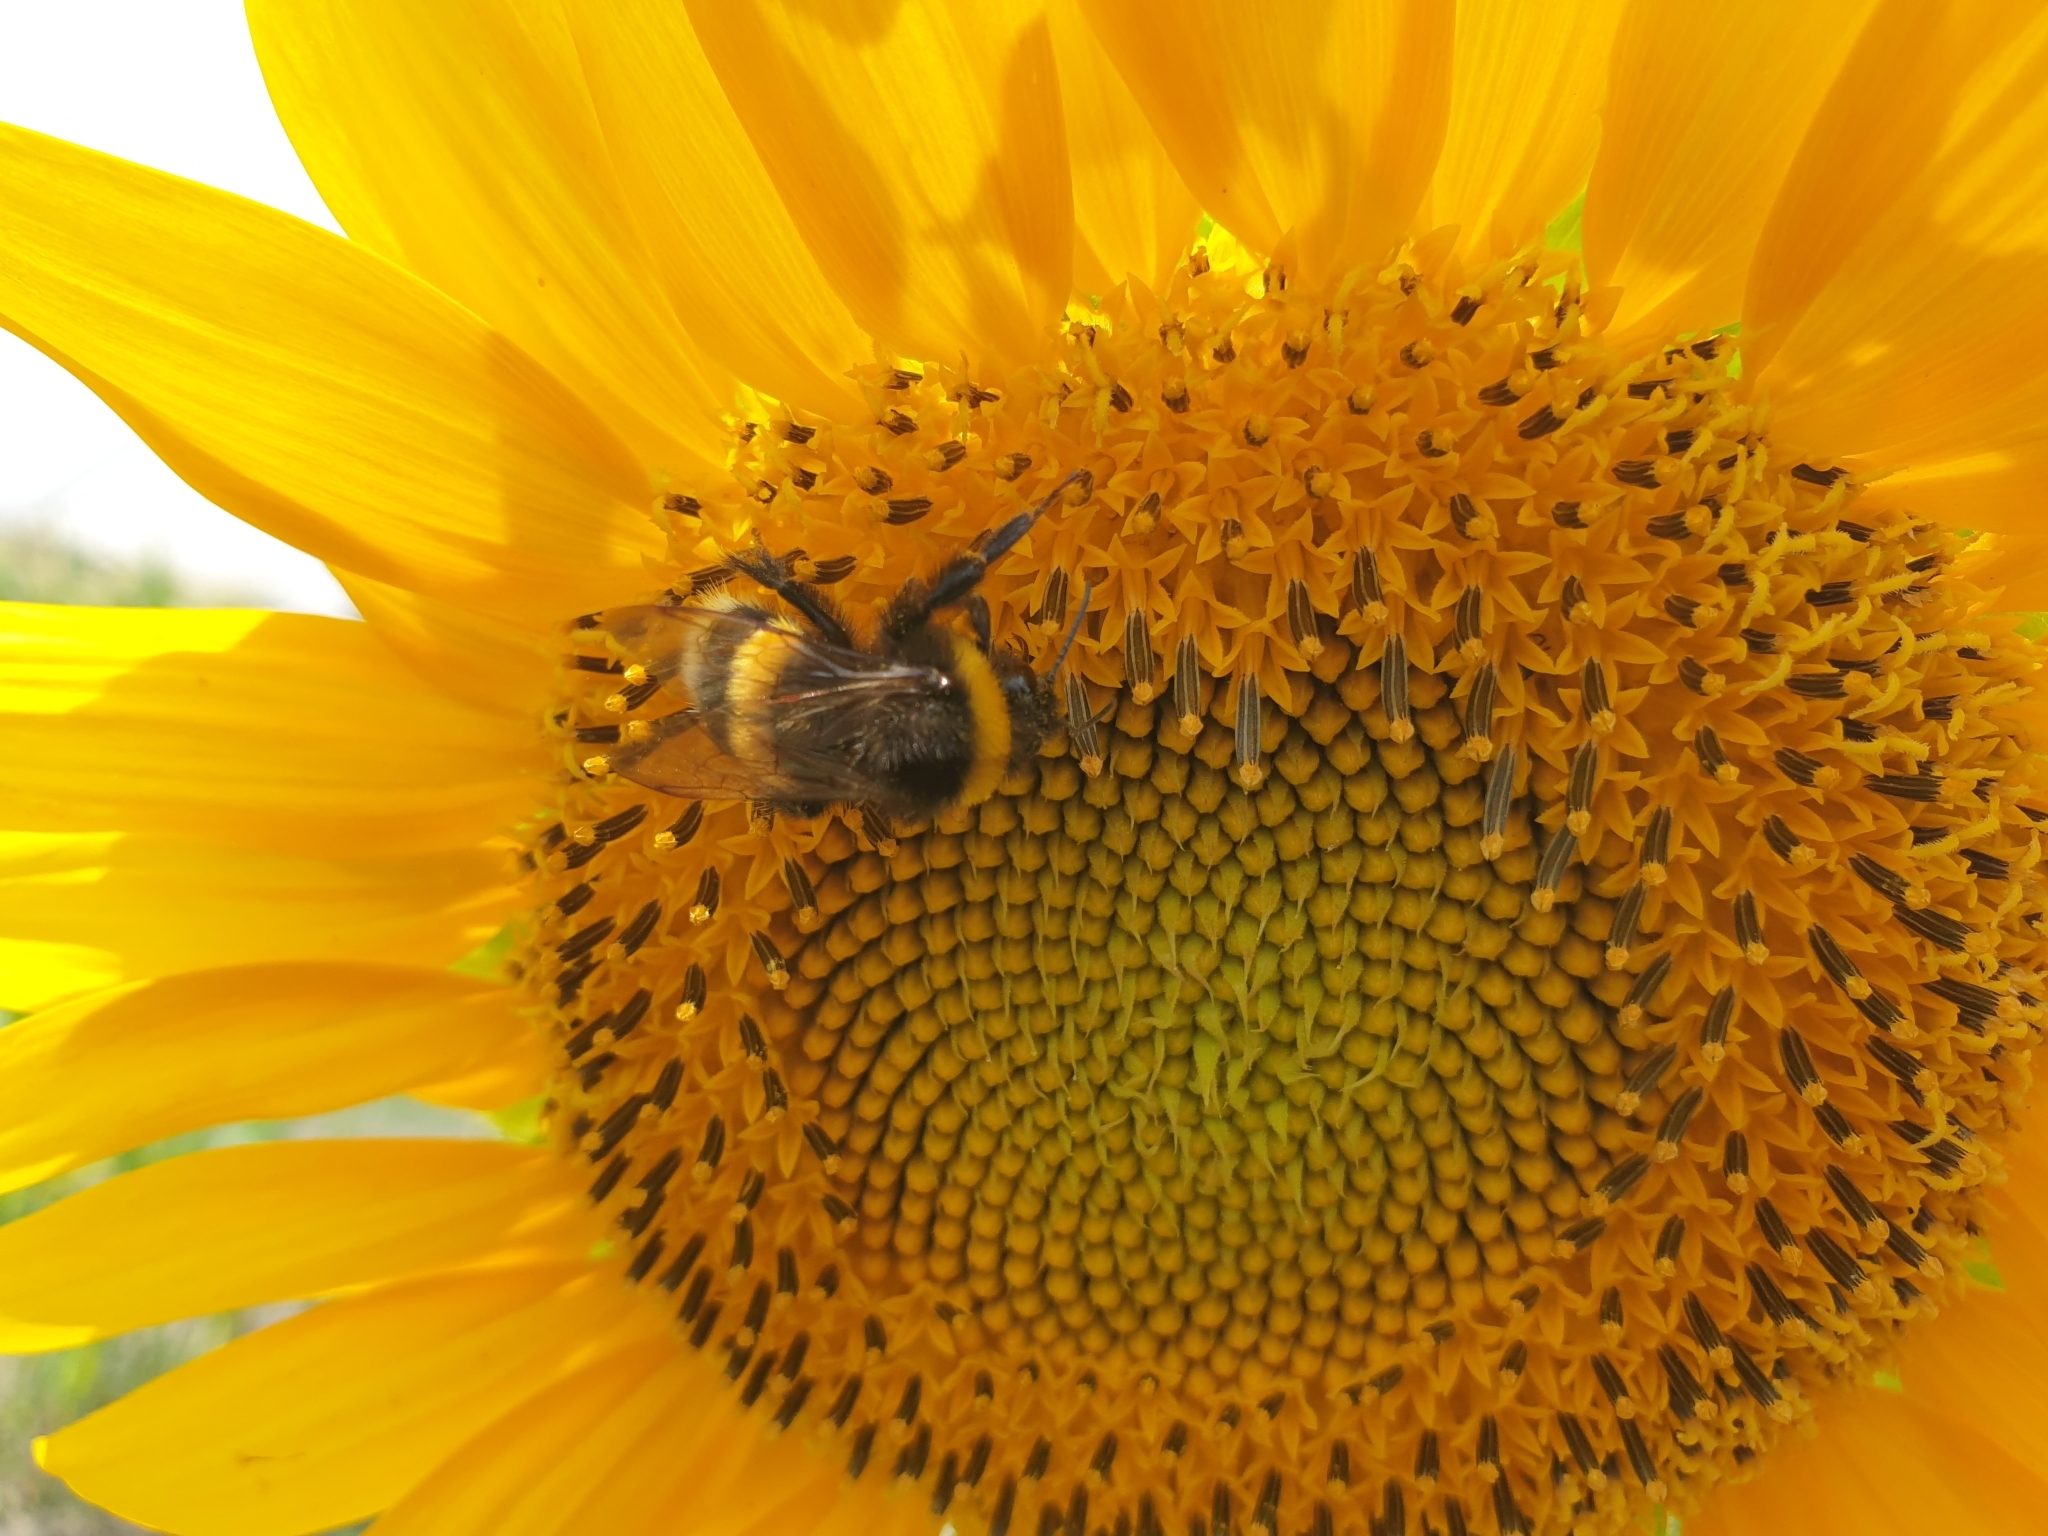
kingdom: Animalia
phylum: Arthropoda
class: Insecta
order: Hymenoptera
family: Apidae
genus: Bombus
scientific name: Bombus
